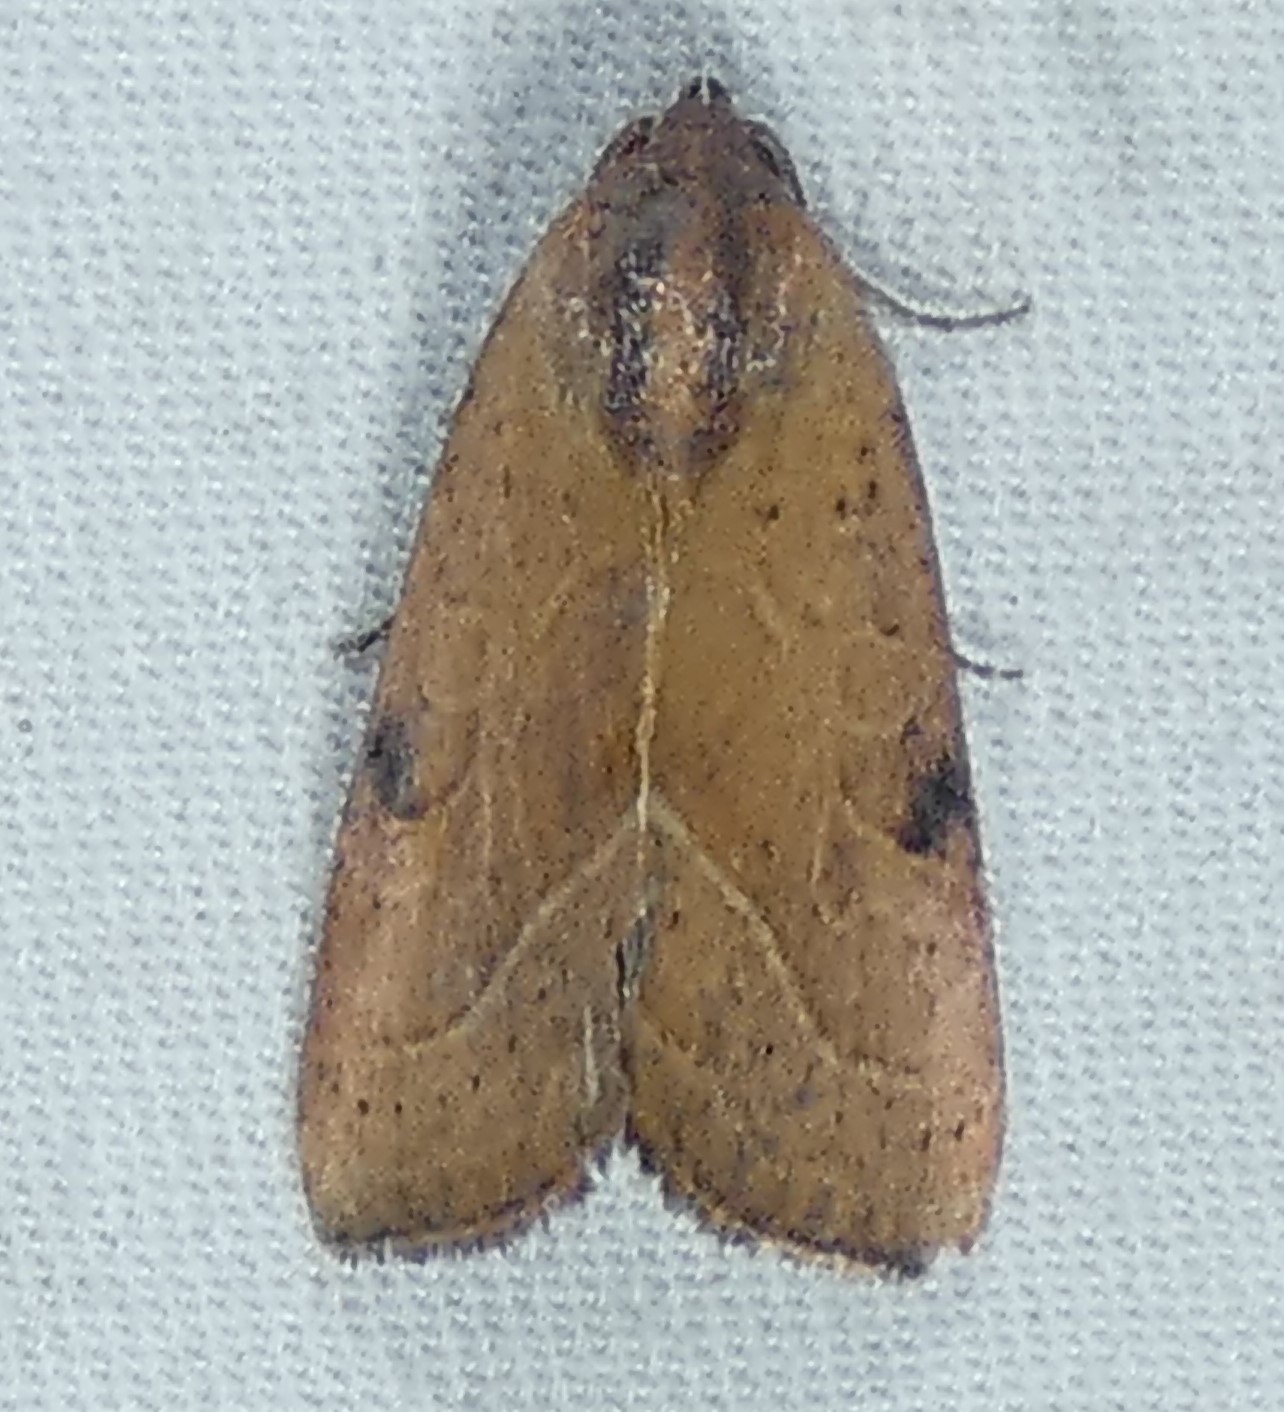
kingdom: Animalia
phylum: Arthropoda
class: Insecta
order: Lepidoptera
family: Noctuidae
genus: Galgula
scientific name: Galgula partita
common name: Wedgeling
